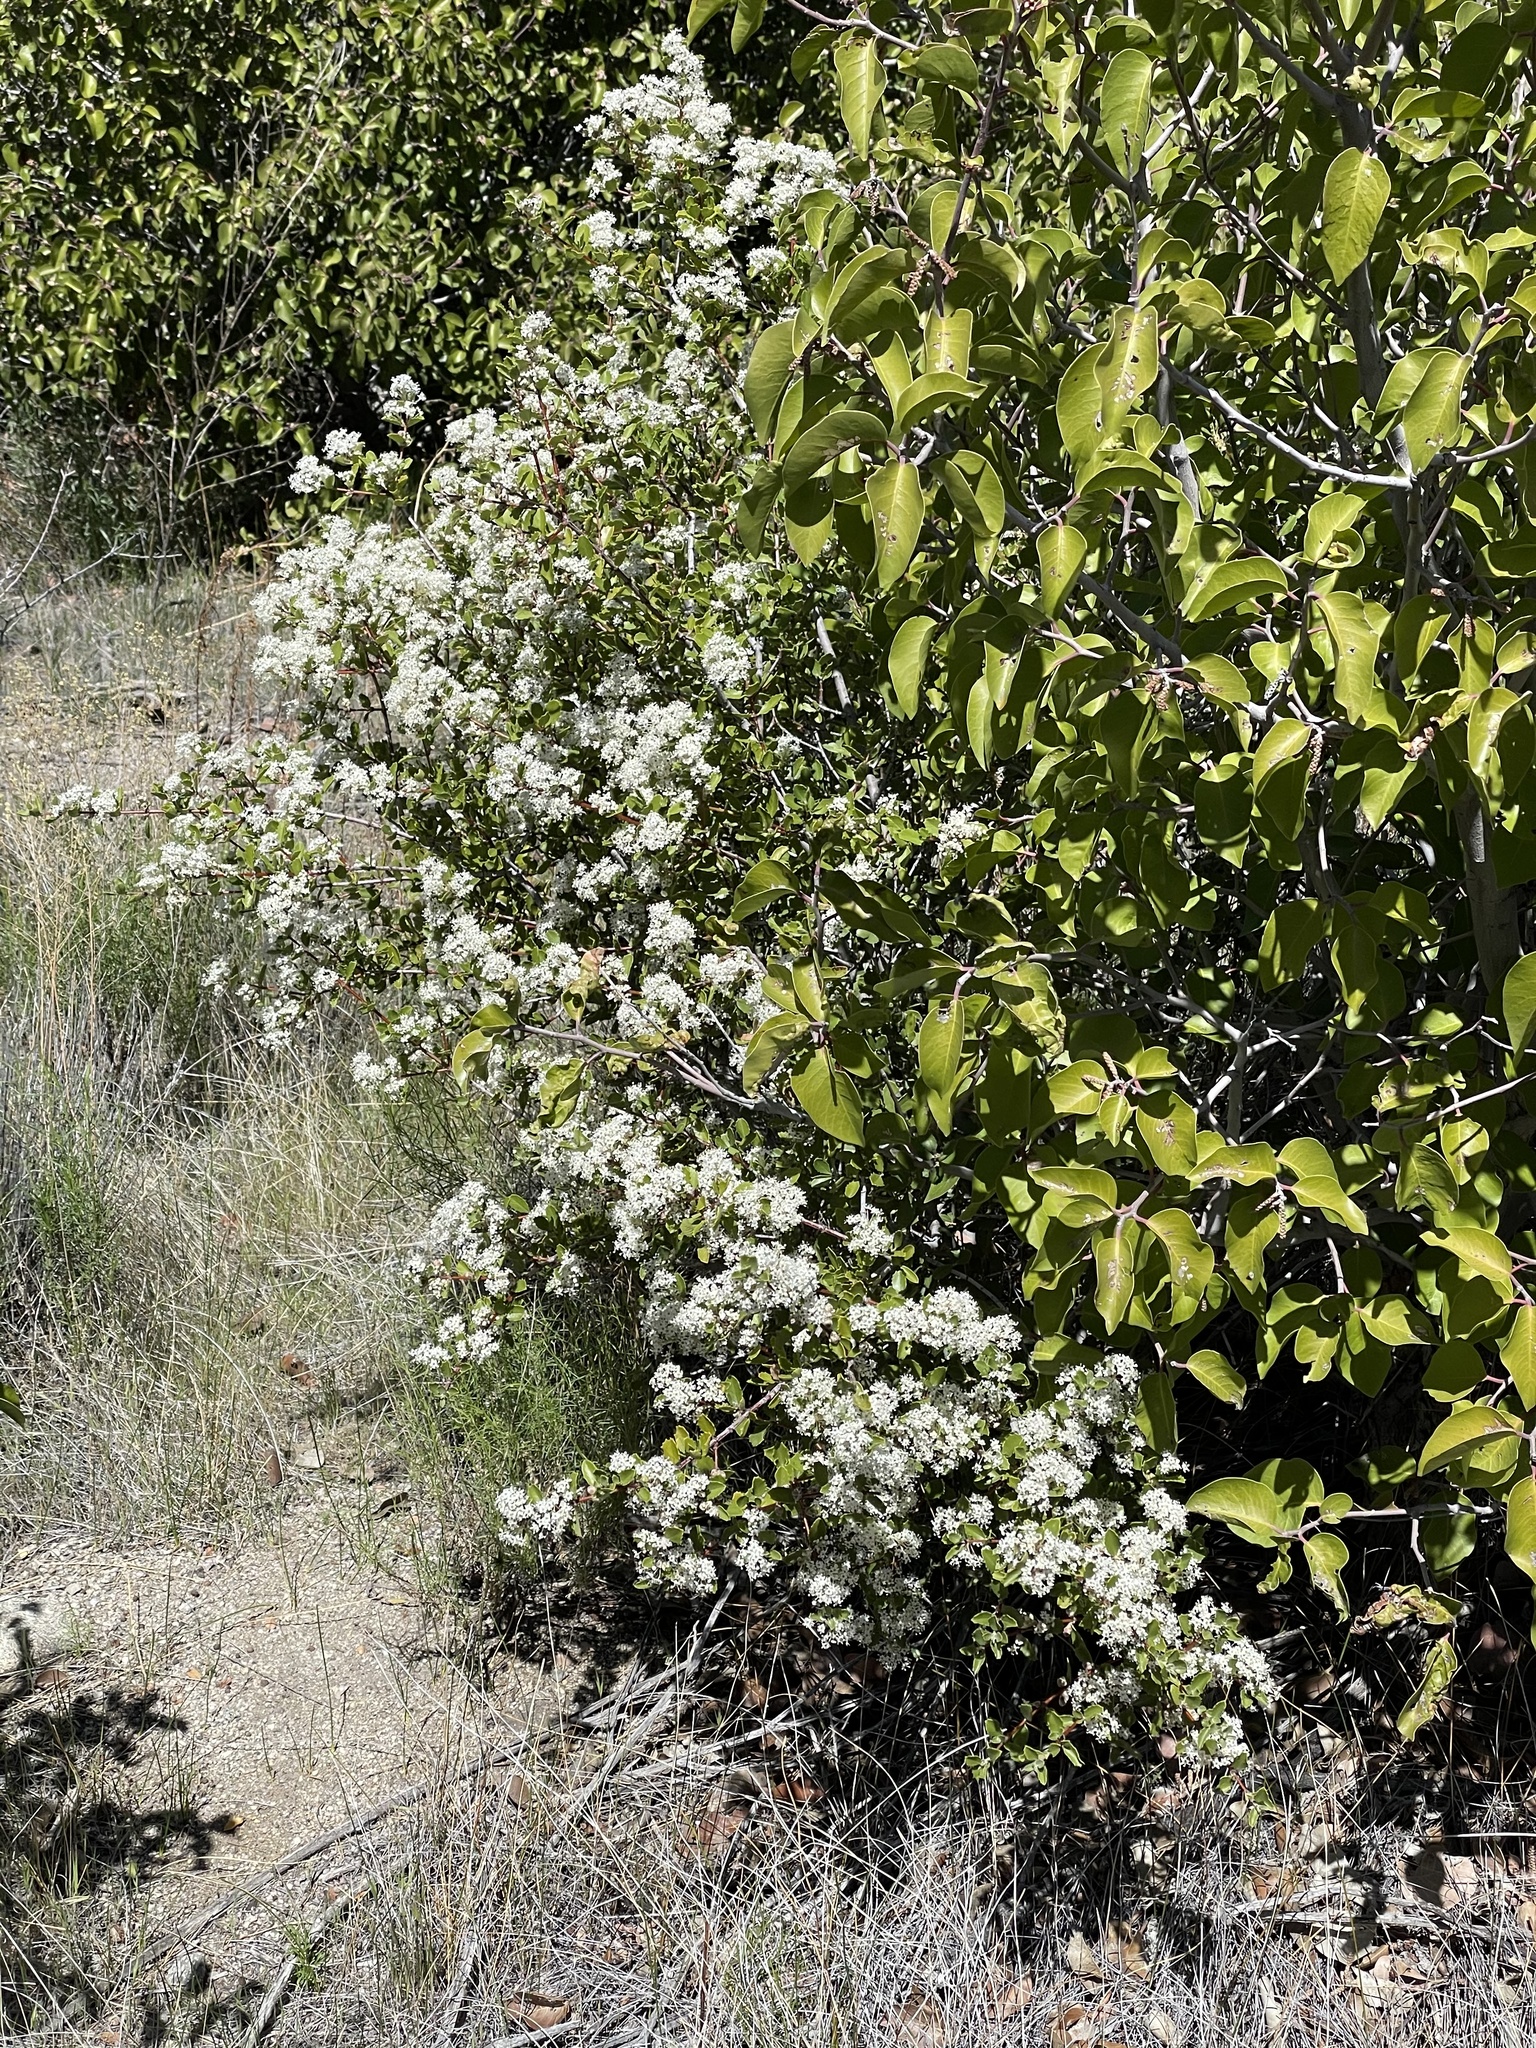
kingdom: Plantae
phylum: Tracheophyta
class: Magnoliopsida
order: Rosales
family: Rhamnaceae
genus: Ceanothus
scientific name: Ceanothus perplexans
